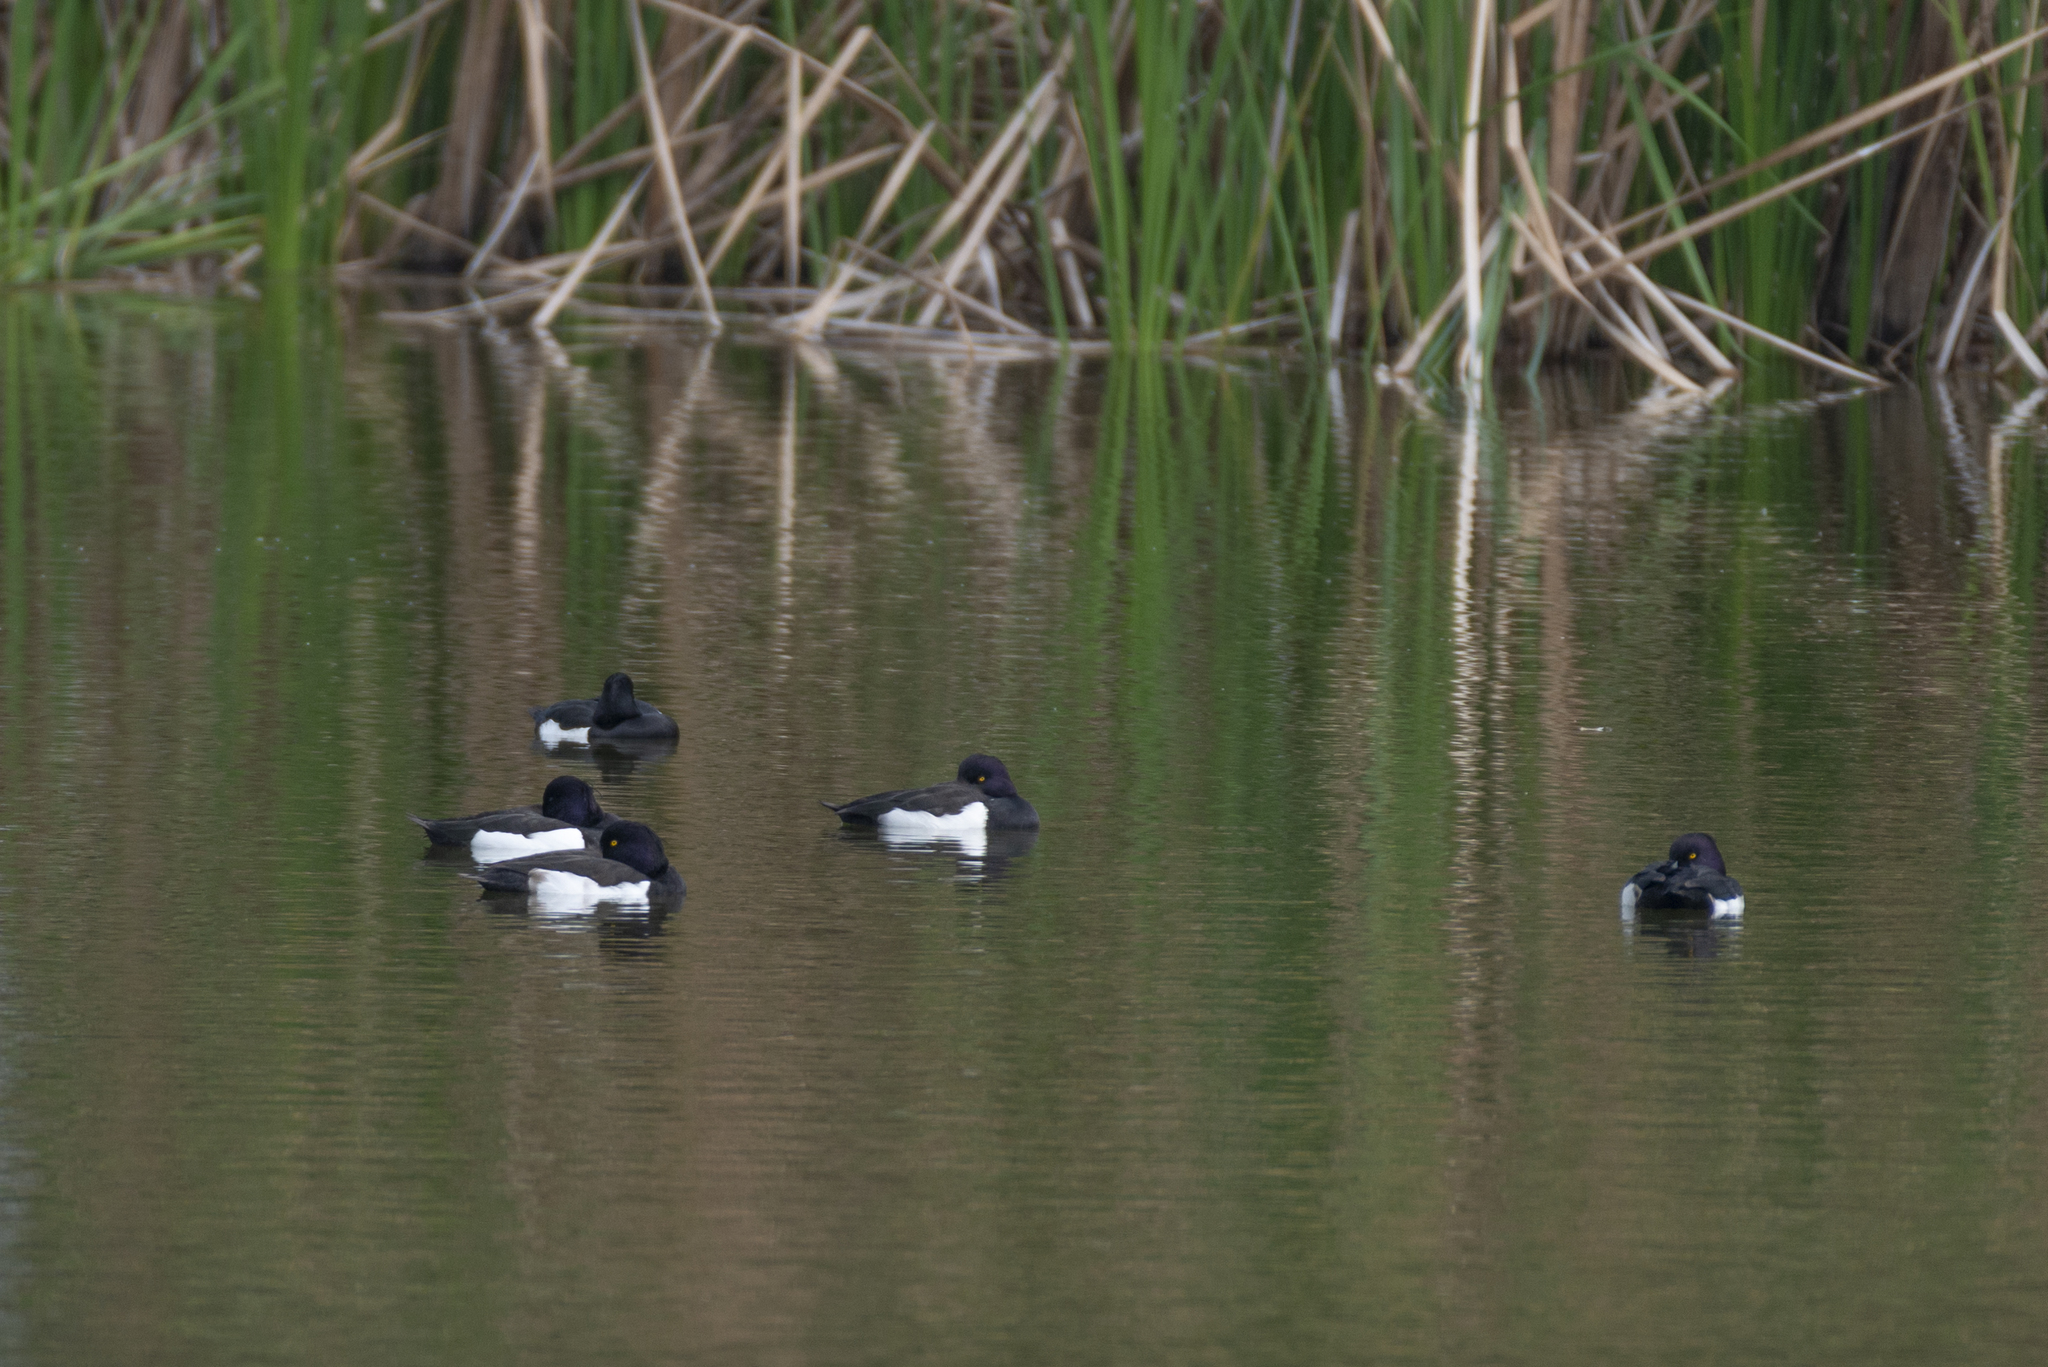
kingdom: Animalia
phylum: Chordata
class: Aves
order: Anseriformes
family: Anatidae
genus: Aythya
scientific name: Aythya fuligula
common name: Tufted duck
